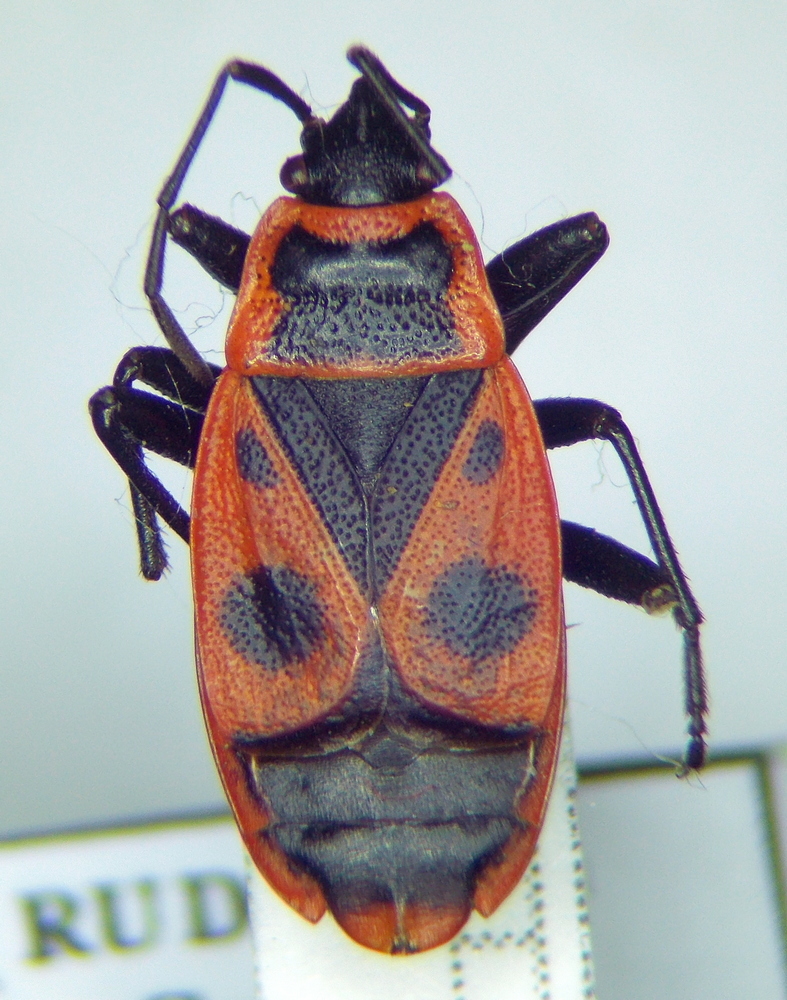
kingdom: Animalia
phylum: Arthropoda
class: Insecta
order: Hemiptera
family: Pyrrhocoridae
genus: Pyrrhocoris
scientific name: Pyrrhocoris apterus
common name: Firebug
